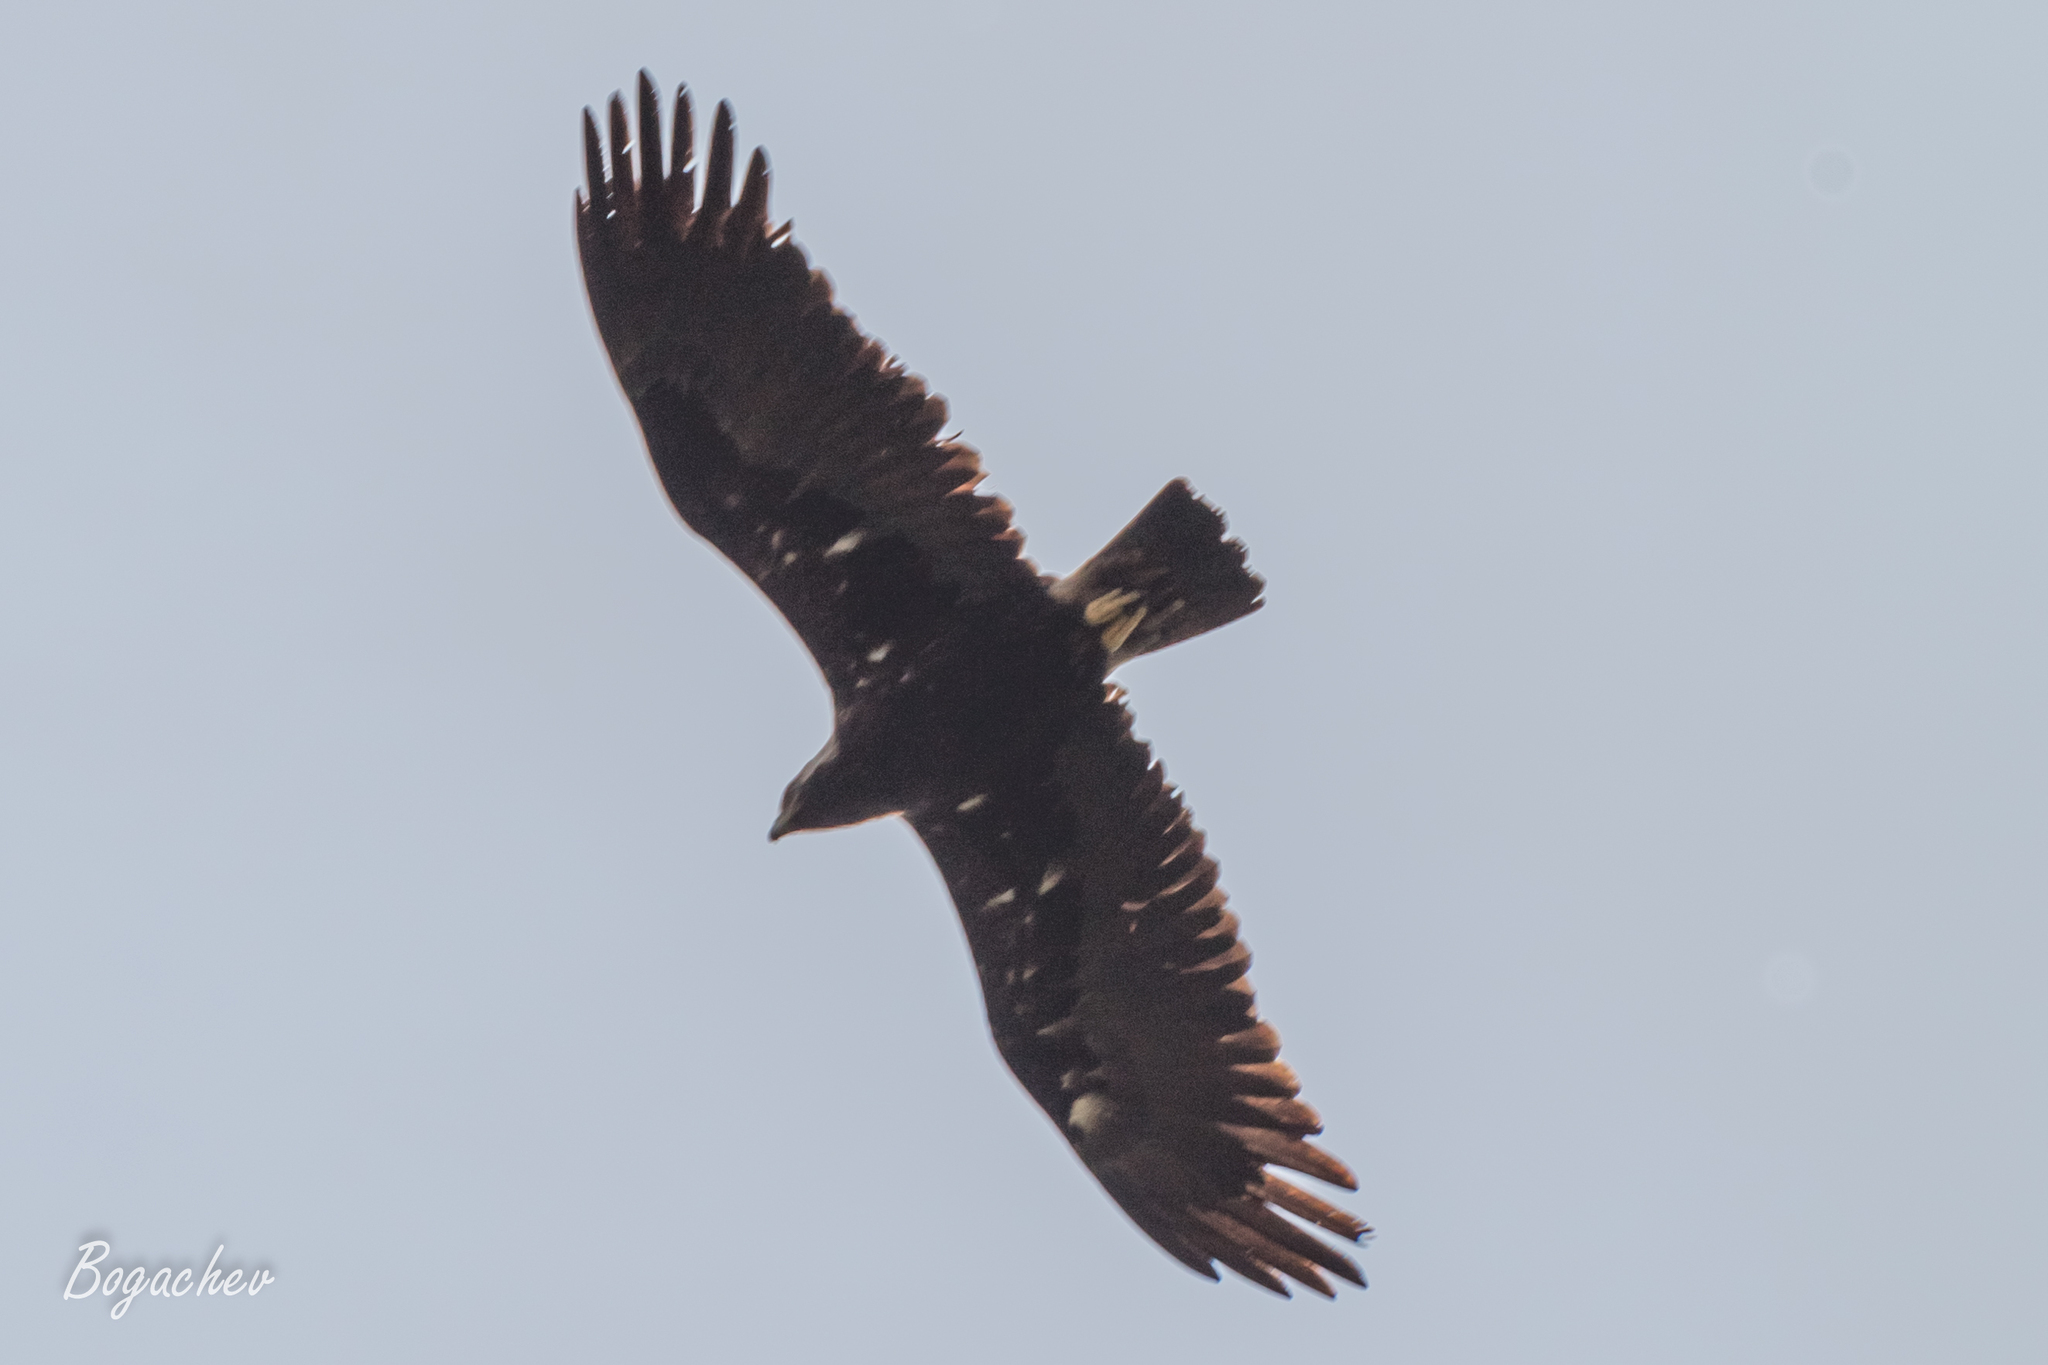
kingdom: Animalia
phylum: Chordata
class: Aves
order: Accipitriformes
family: Accipitridae
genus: Aquila
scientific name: Aquila heliaca
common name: Eastern imperial eagle
